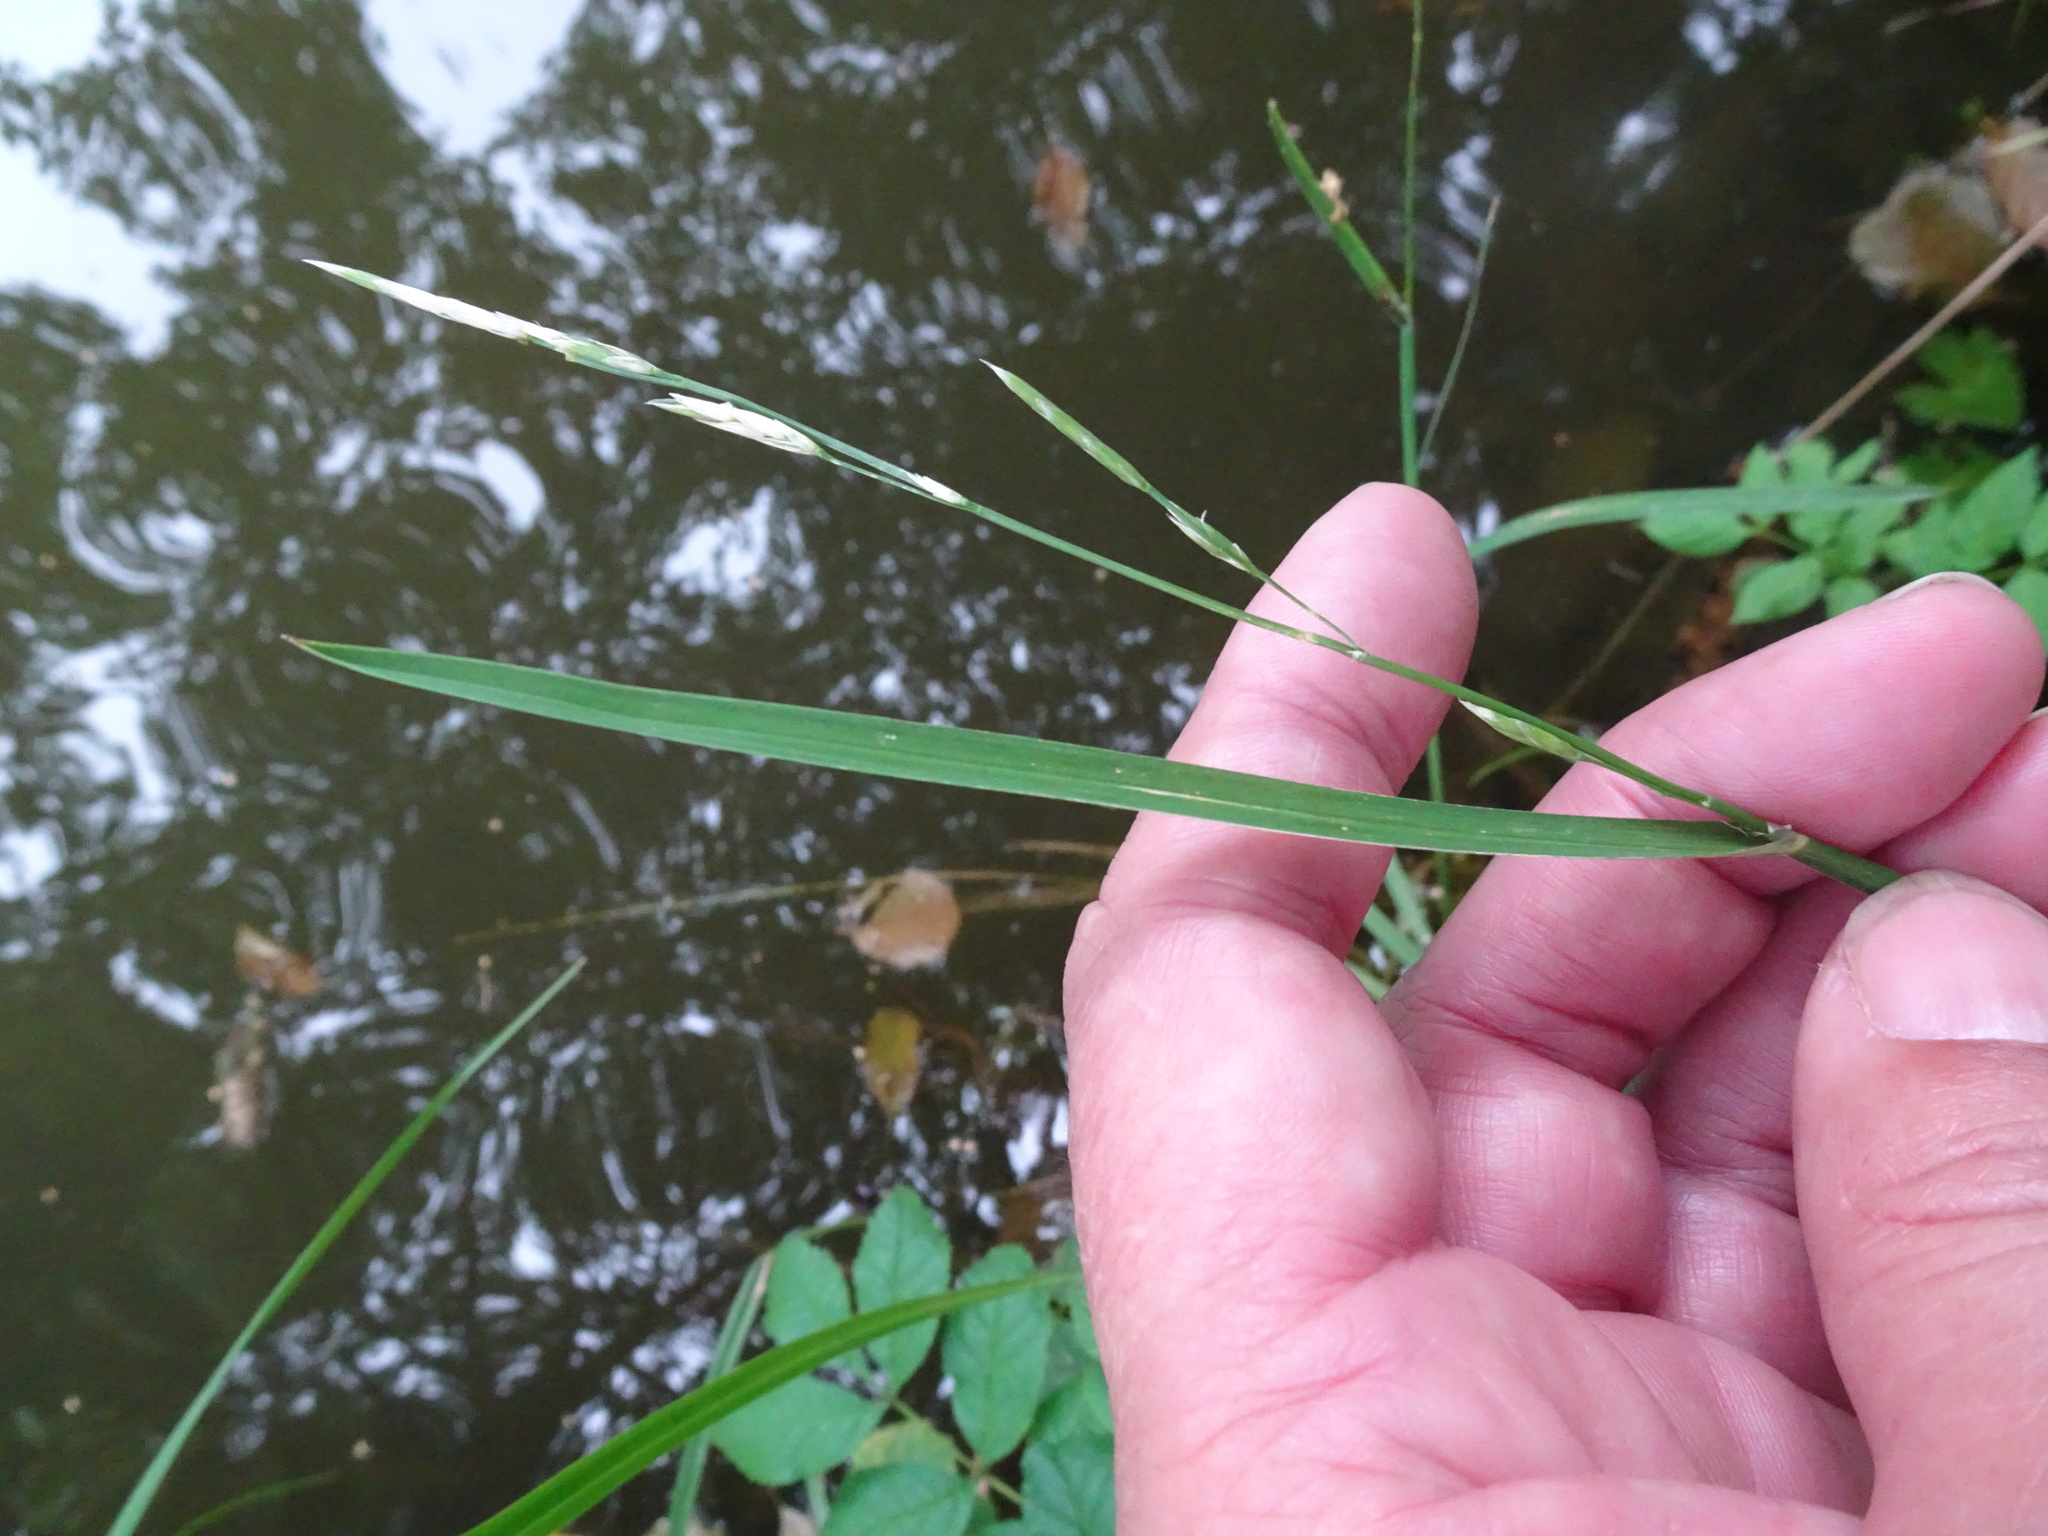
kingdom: Plantae
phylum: Tracheophyta
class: Liliopsida
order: Poales
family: Poaceae
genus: Glyceria
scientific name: Glyceria fluitans
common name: Floating sweet-grass
